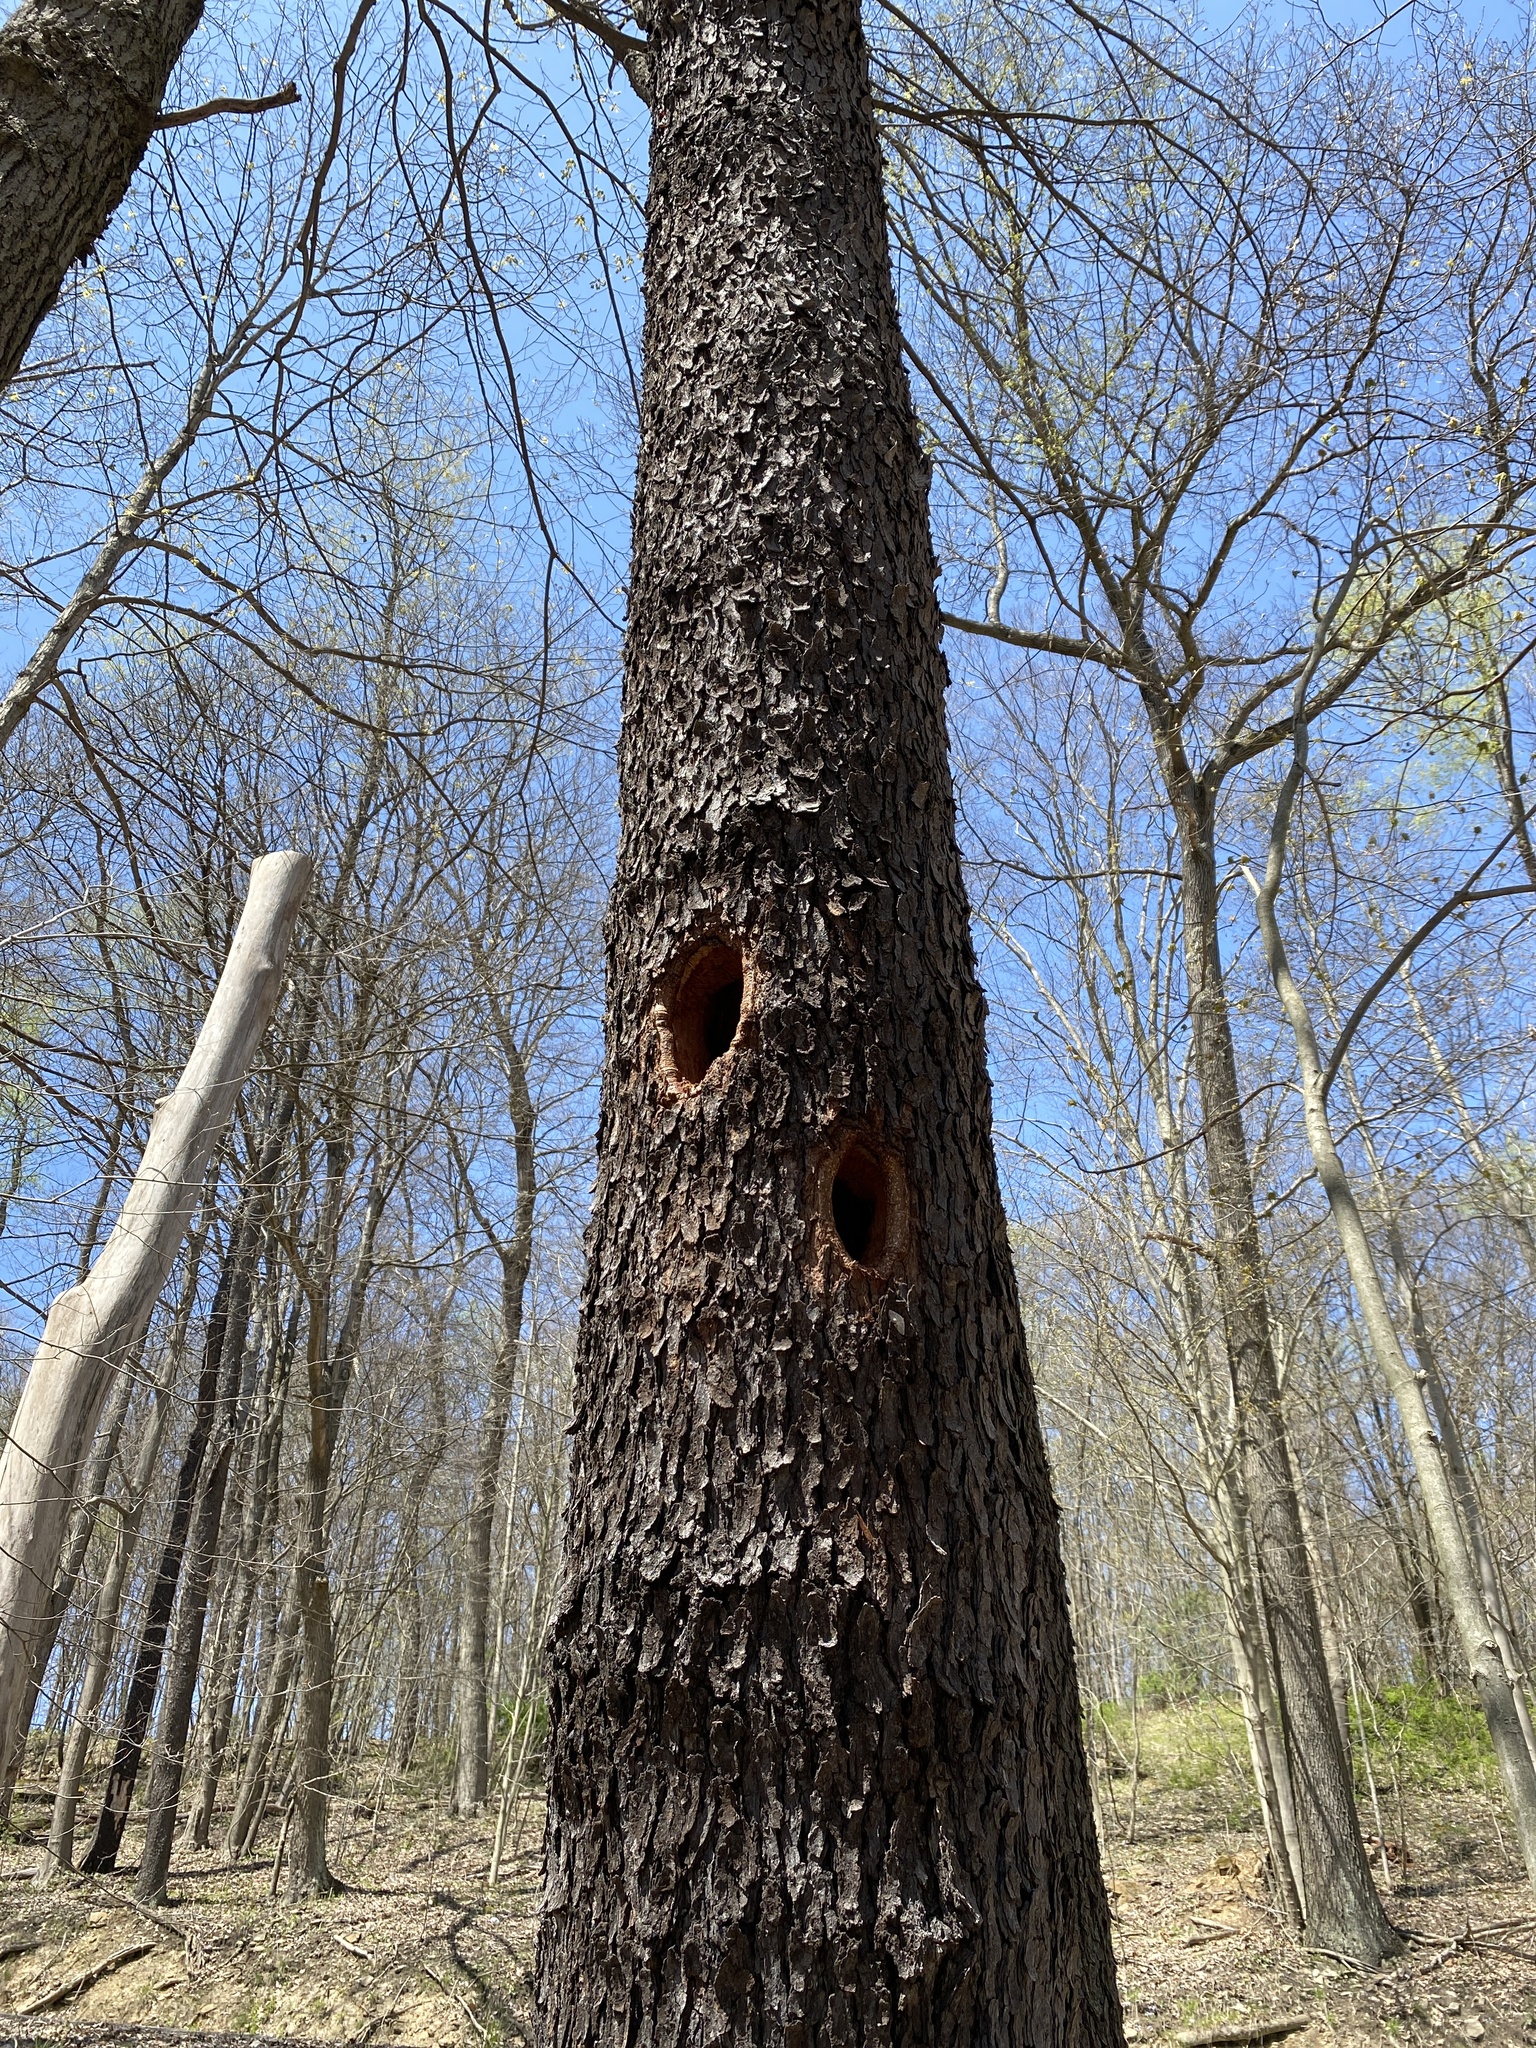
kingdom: Plantae
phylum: Tracheophyta
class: Magnoliopsida
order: Rosales
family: Rosaceae
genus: Prunus
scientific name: Prunus serotina
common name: Black cherry
